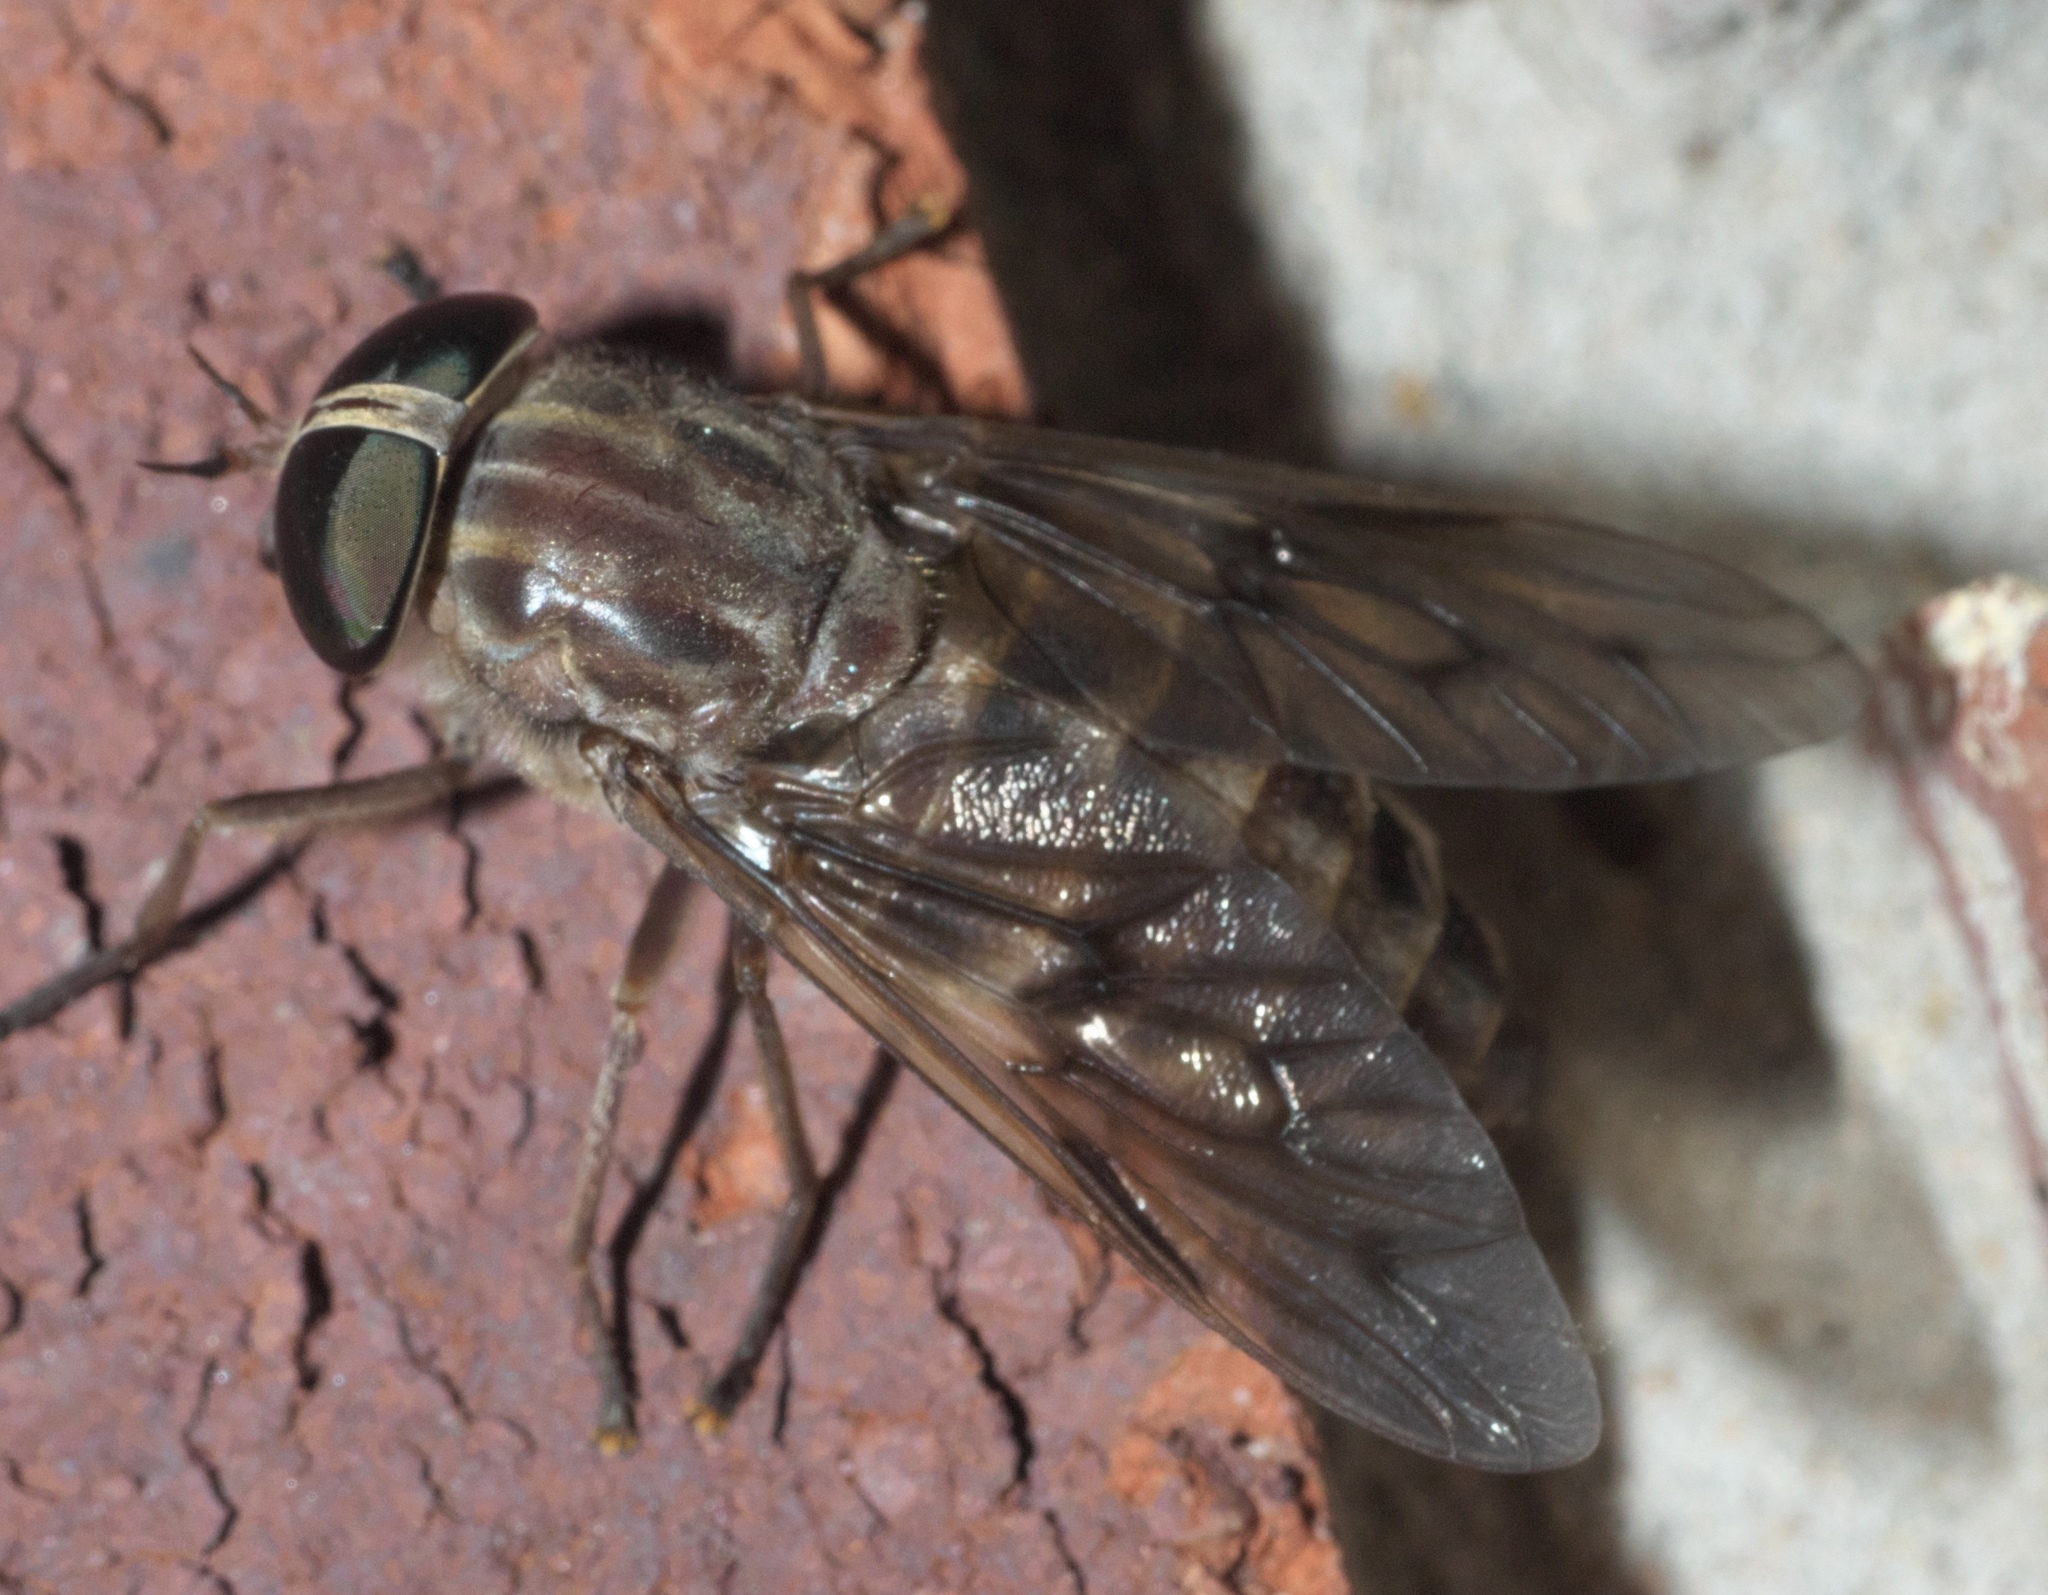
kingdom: Animalia
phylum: Arthropoda
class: Insecta
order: Diptera
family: Tabanidae
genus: Tabanus
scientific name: Tabanus equalis
